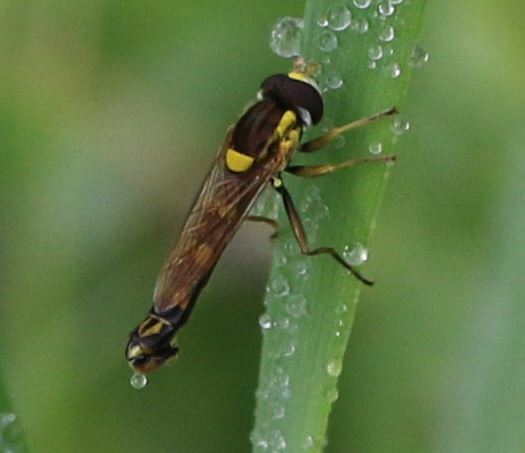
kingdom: Animalia
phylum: Arthropoda
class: Insecta
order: Diptera
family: Syrphidae
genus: Sphaerophoria
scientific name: Sphaerophoria scripta
